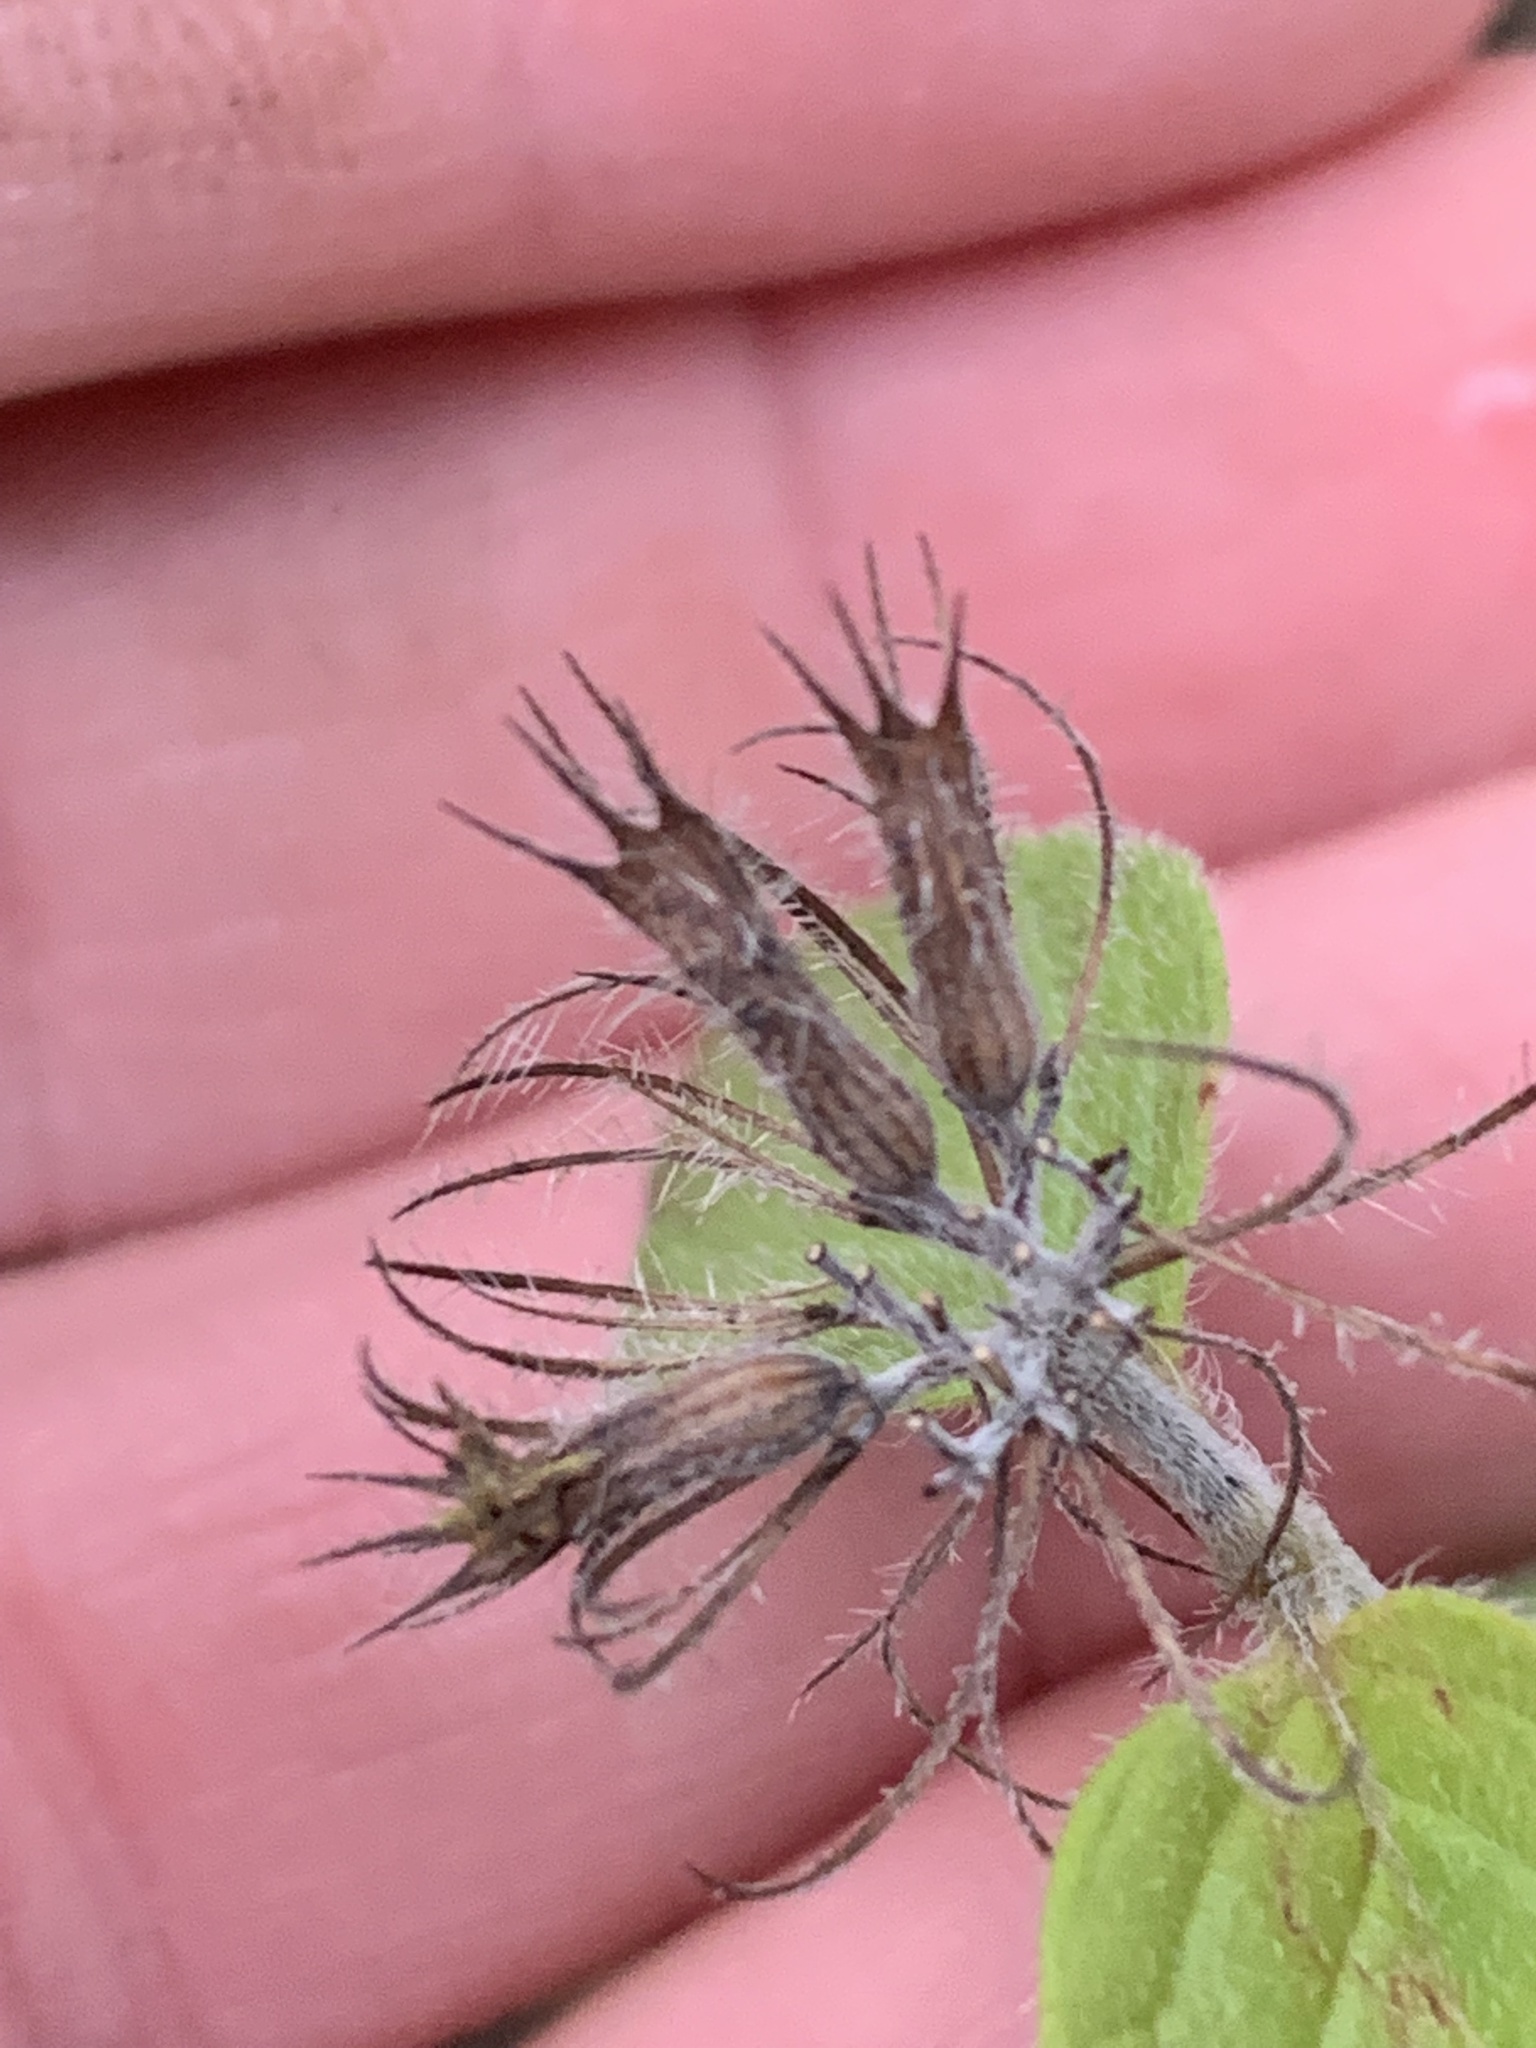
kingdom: Plantae
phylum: Tracheophyta
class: Magnoliopsida
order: Lamiales
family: Lamiaceae
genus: Clinopodium
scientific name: Clinopodium vulgare
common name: Wild basil
